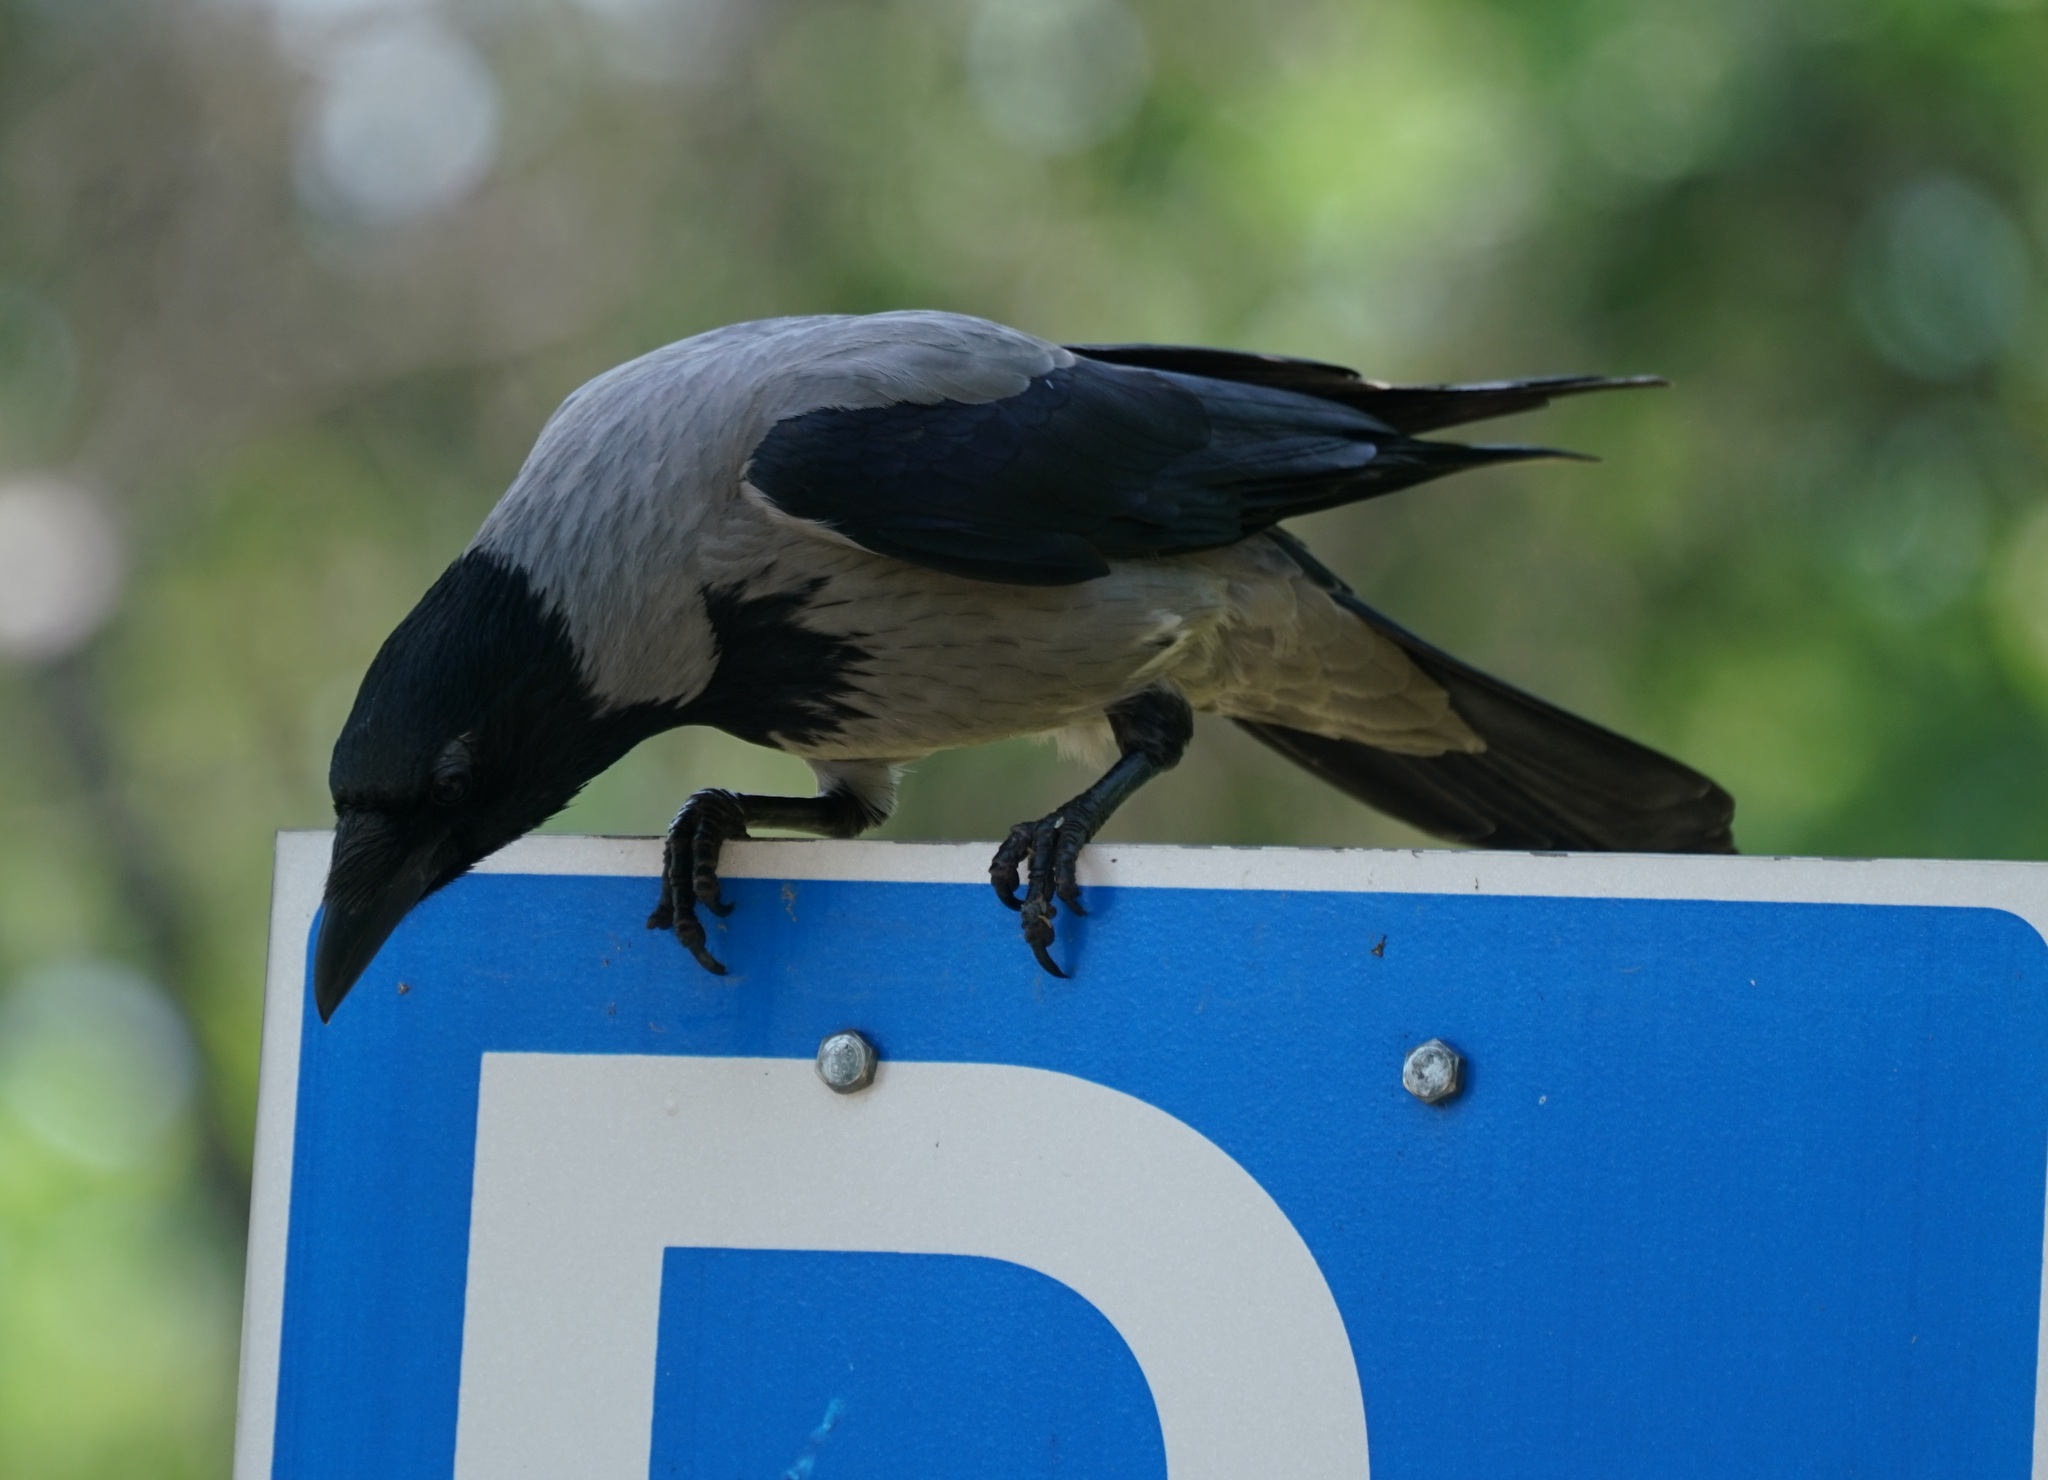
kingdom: Animalia
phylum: Chordata
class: Aves
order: Passeriformes
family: Corvidae
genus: Corvus
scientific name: Corvus cornix
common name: Hooded crow
